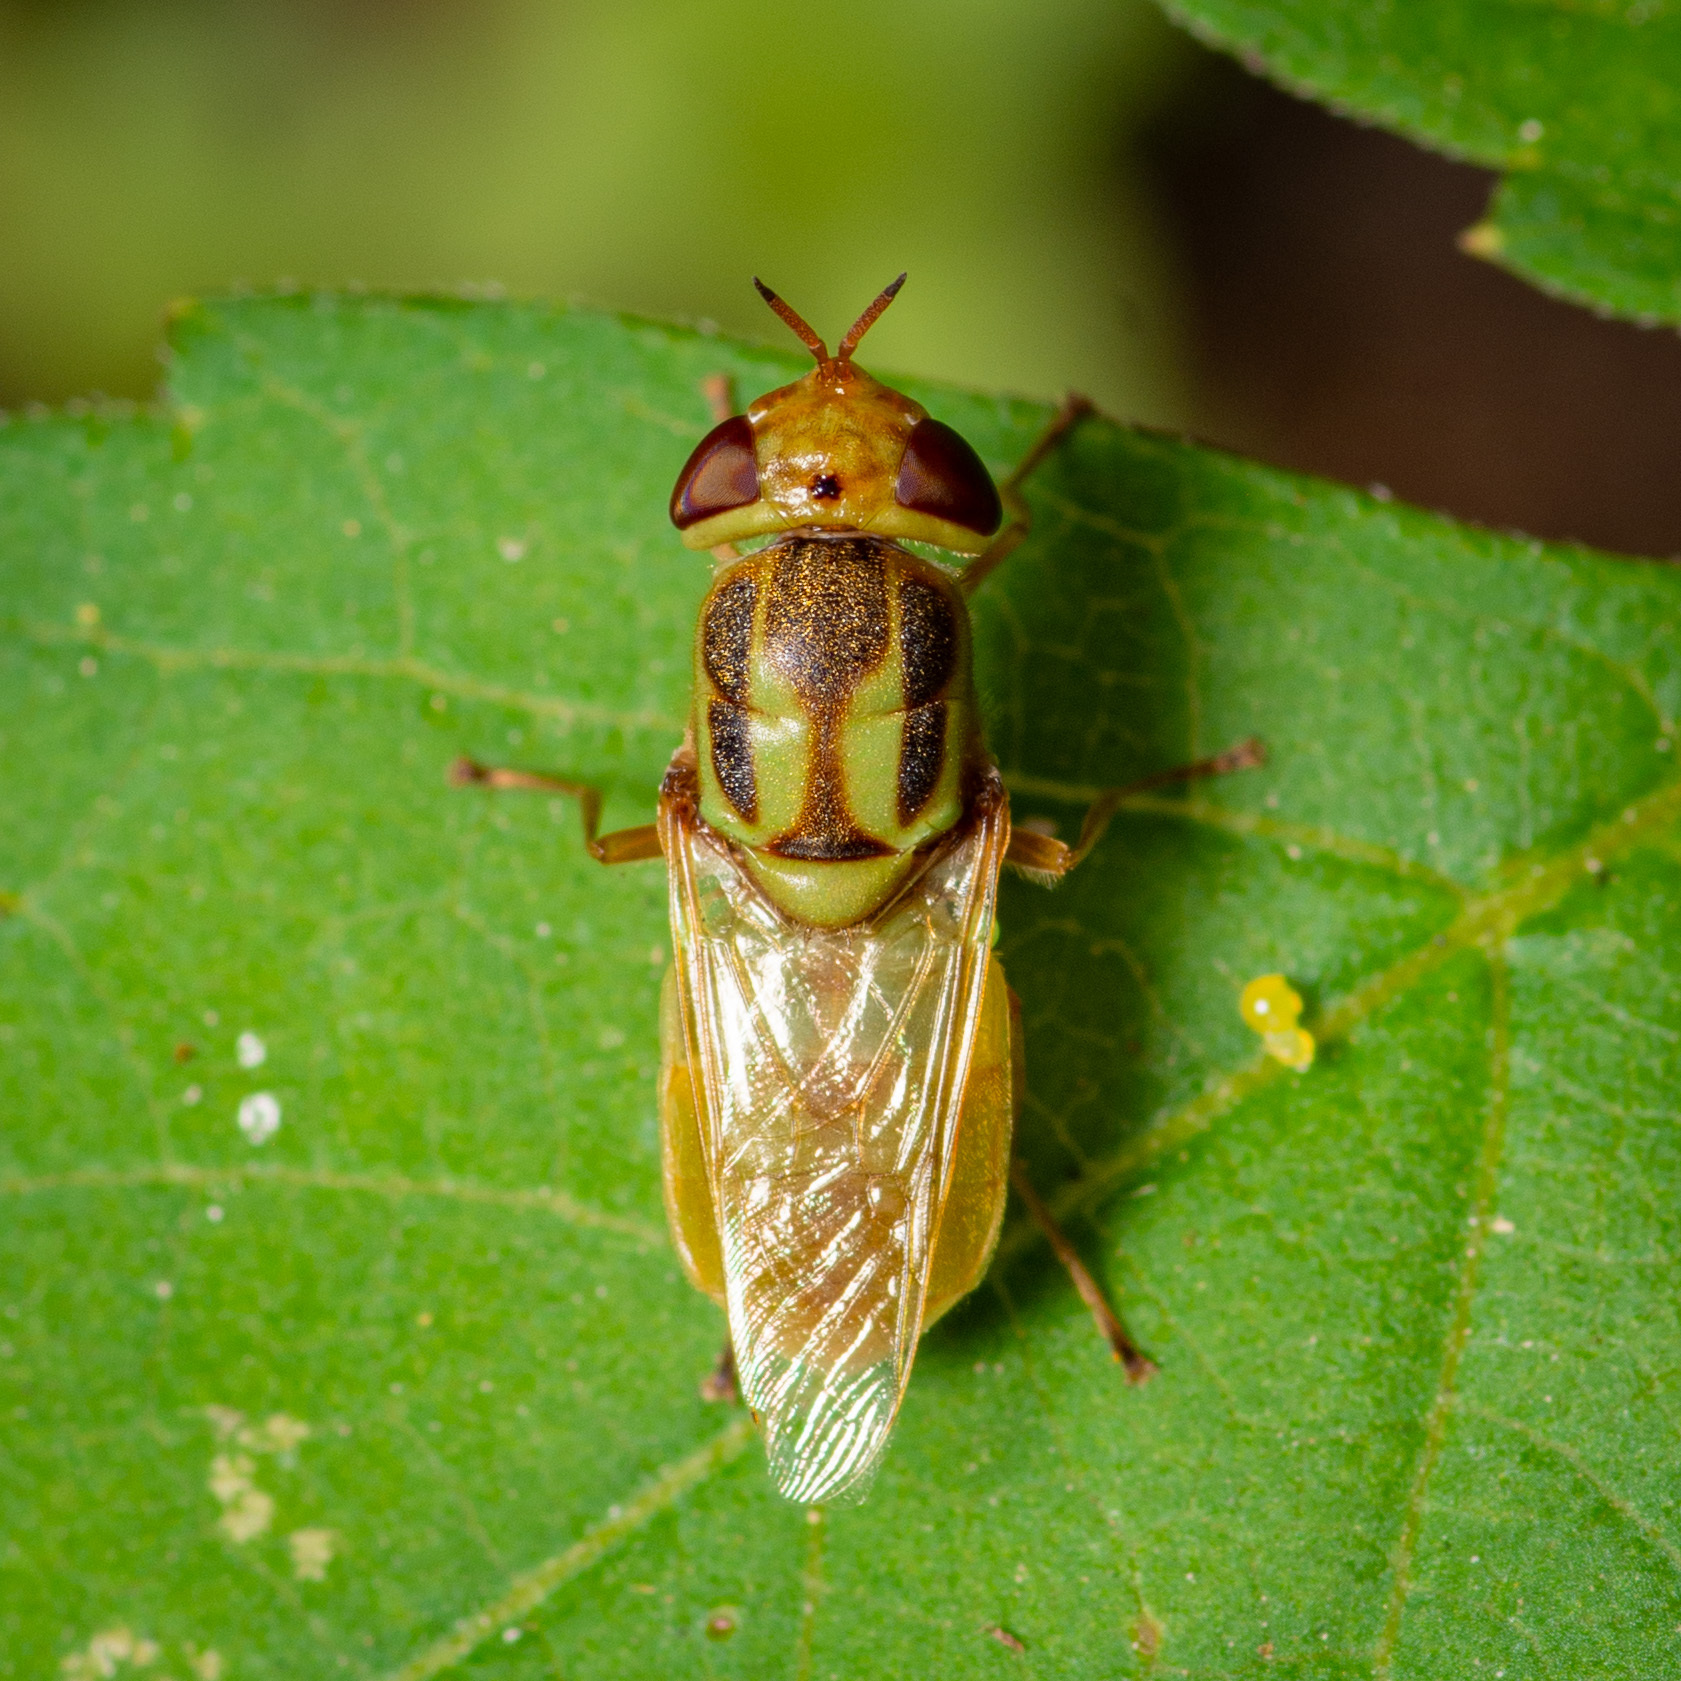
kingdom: Animalia
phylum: Arthropoda
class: Insecta
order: Diptera
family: Stratiomyidae
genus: Hedriodiscus
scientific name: Hedriodiscus trivittatus
